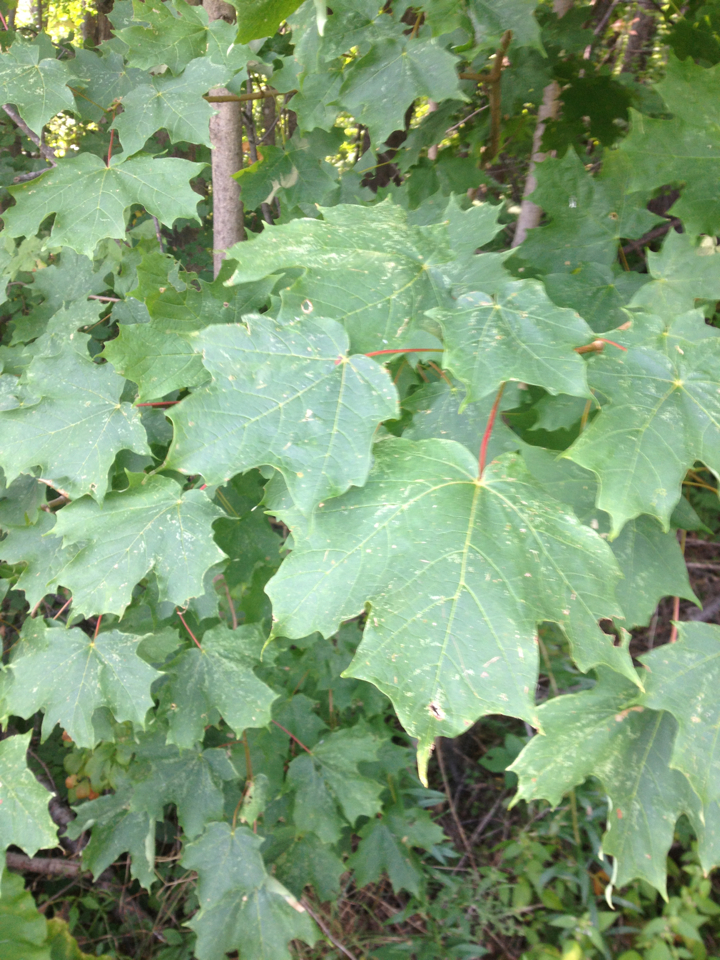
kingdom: Plantae
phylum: Tracheophyta
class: Magnoliopsida
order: Sapindales
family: Sapindaceae
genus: Acer
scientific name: Acer saccharum
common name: Sugar maple
